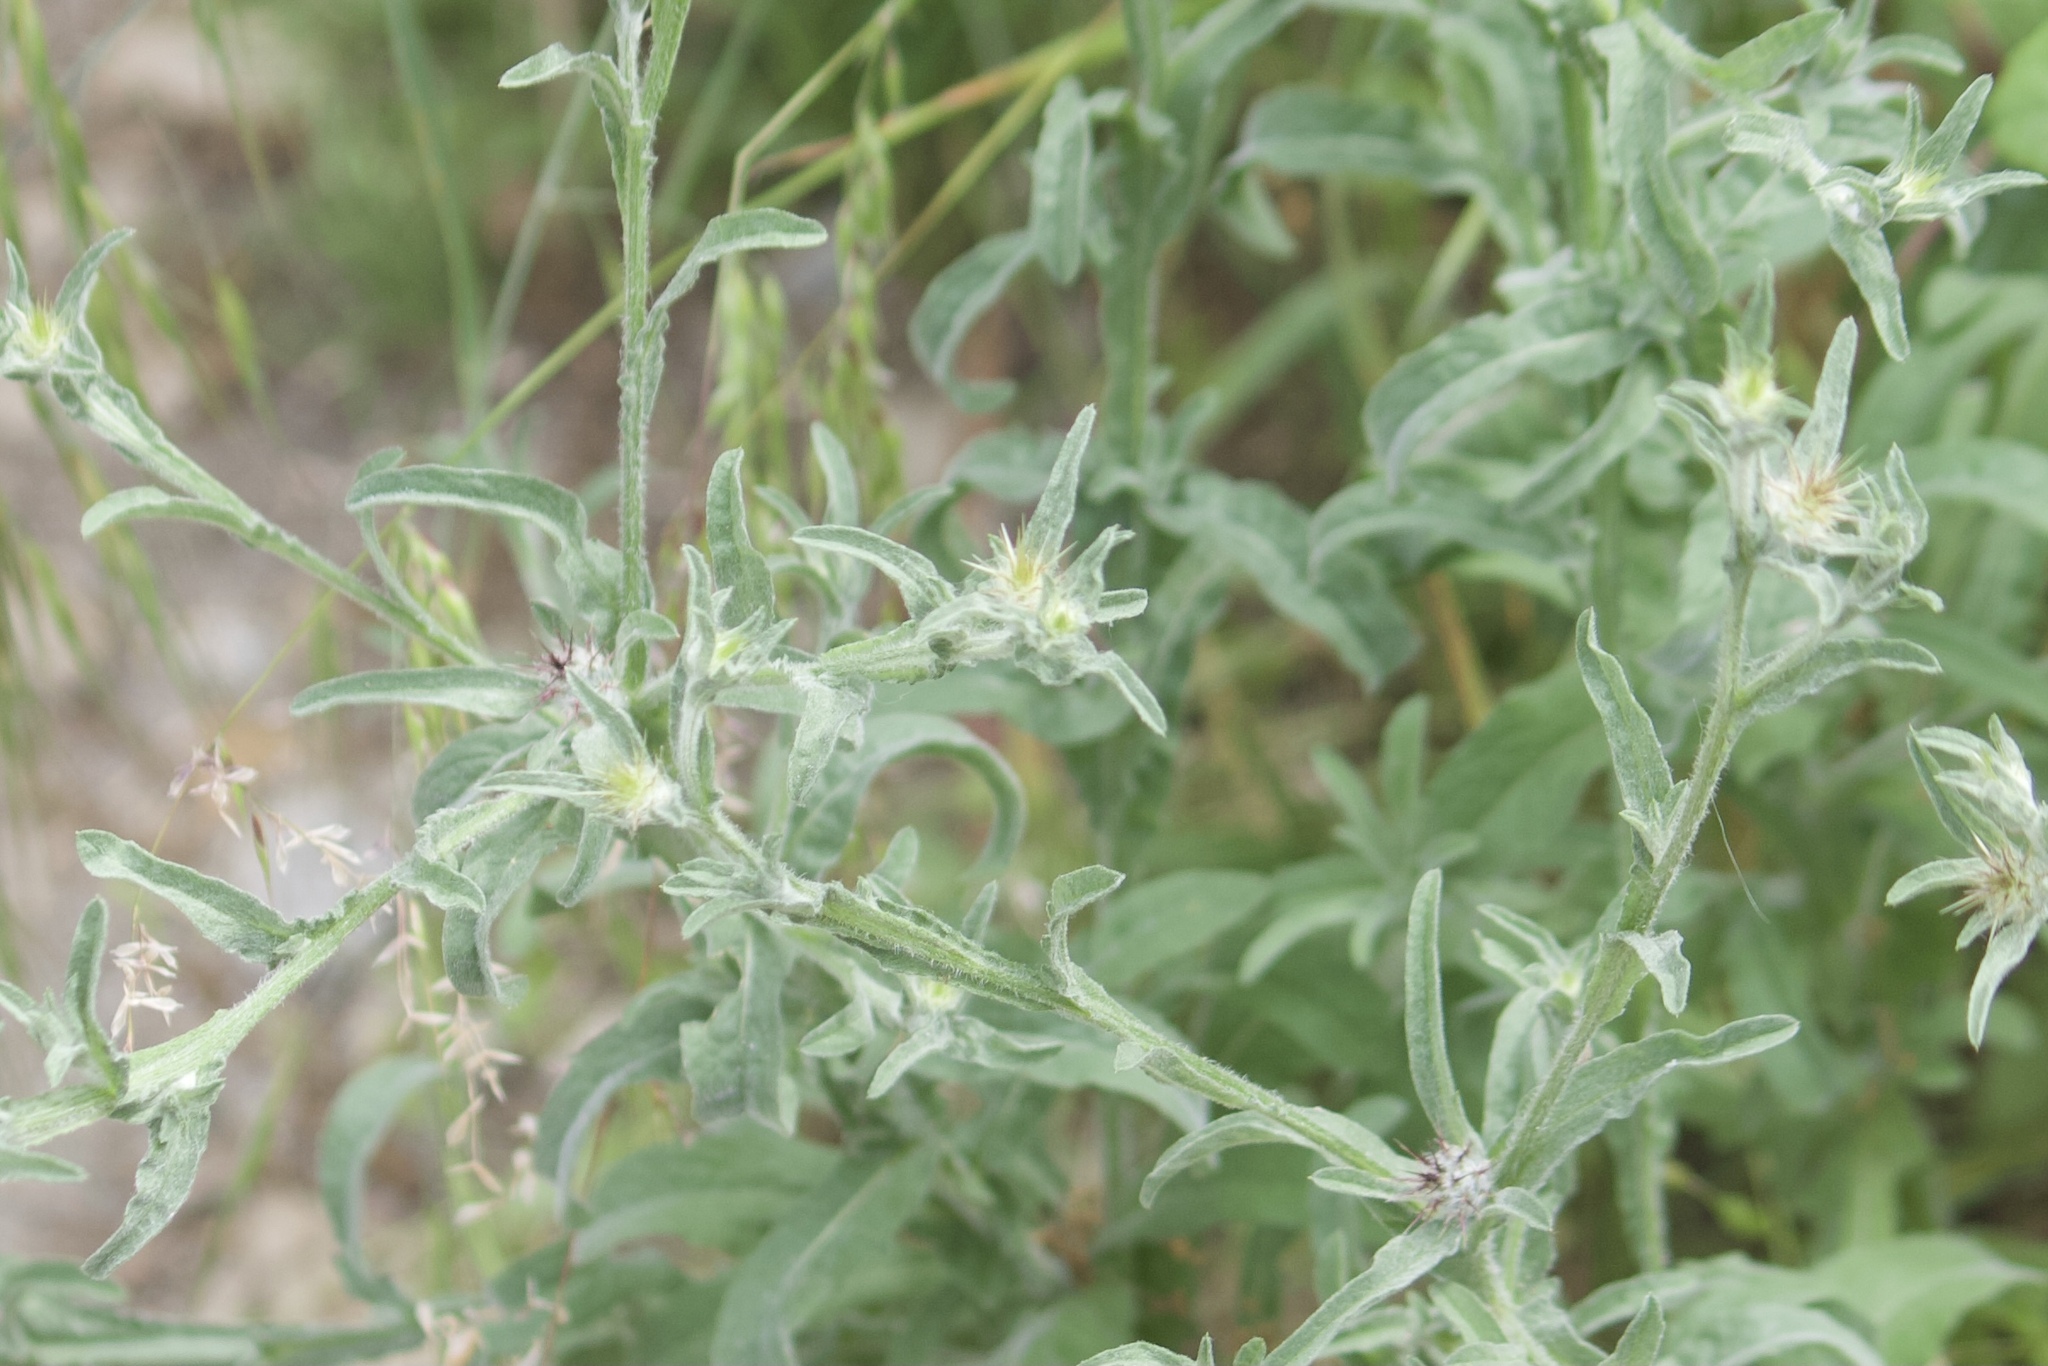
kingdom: Plantae
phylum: Tracheophyta
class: Magnoliopsida
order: Asterales
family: Asteraceae
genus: Centaurea
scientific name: Centaurea melitensis
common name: Maltese star-thistle
